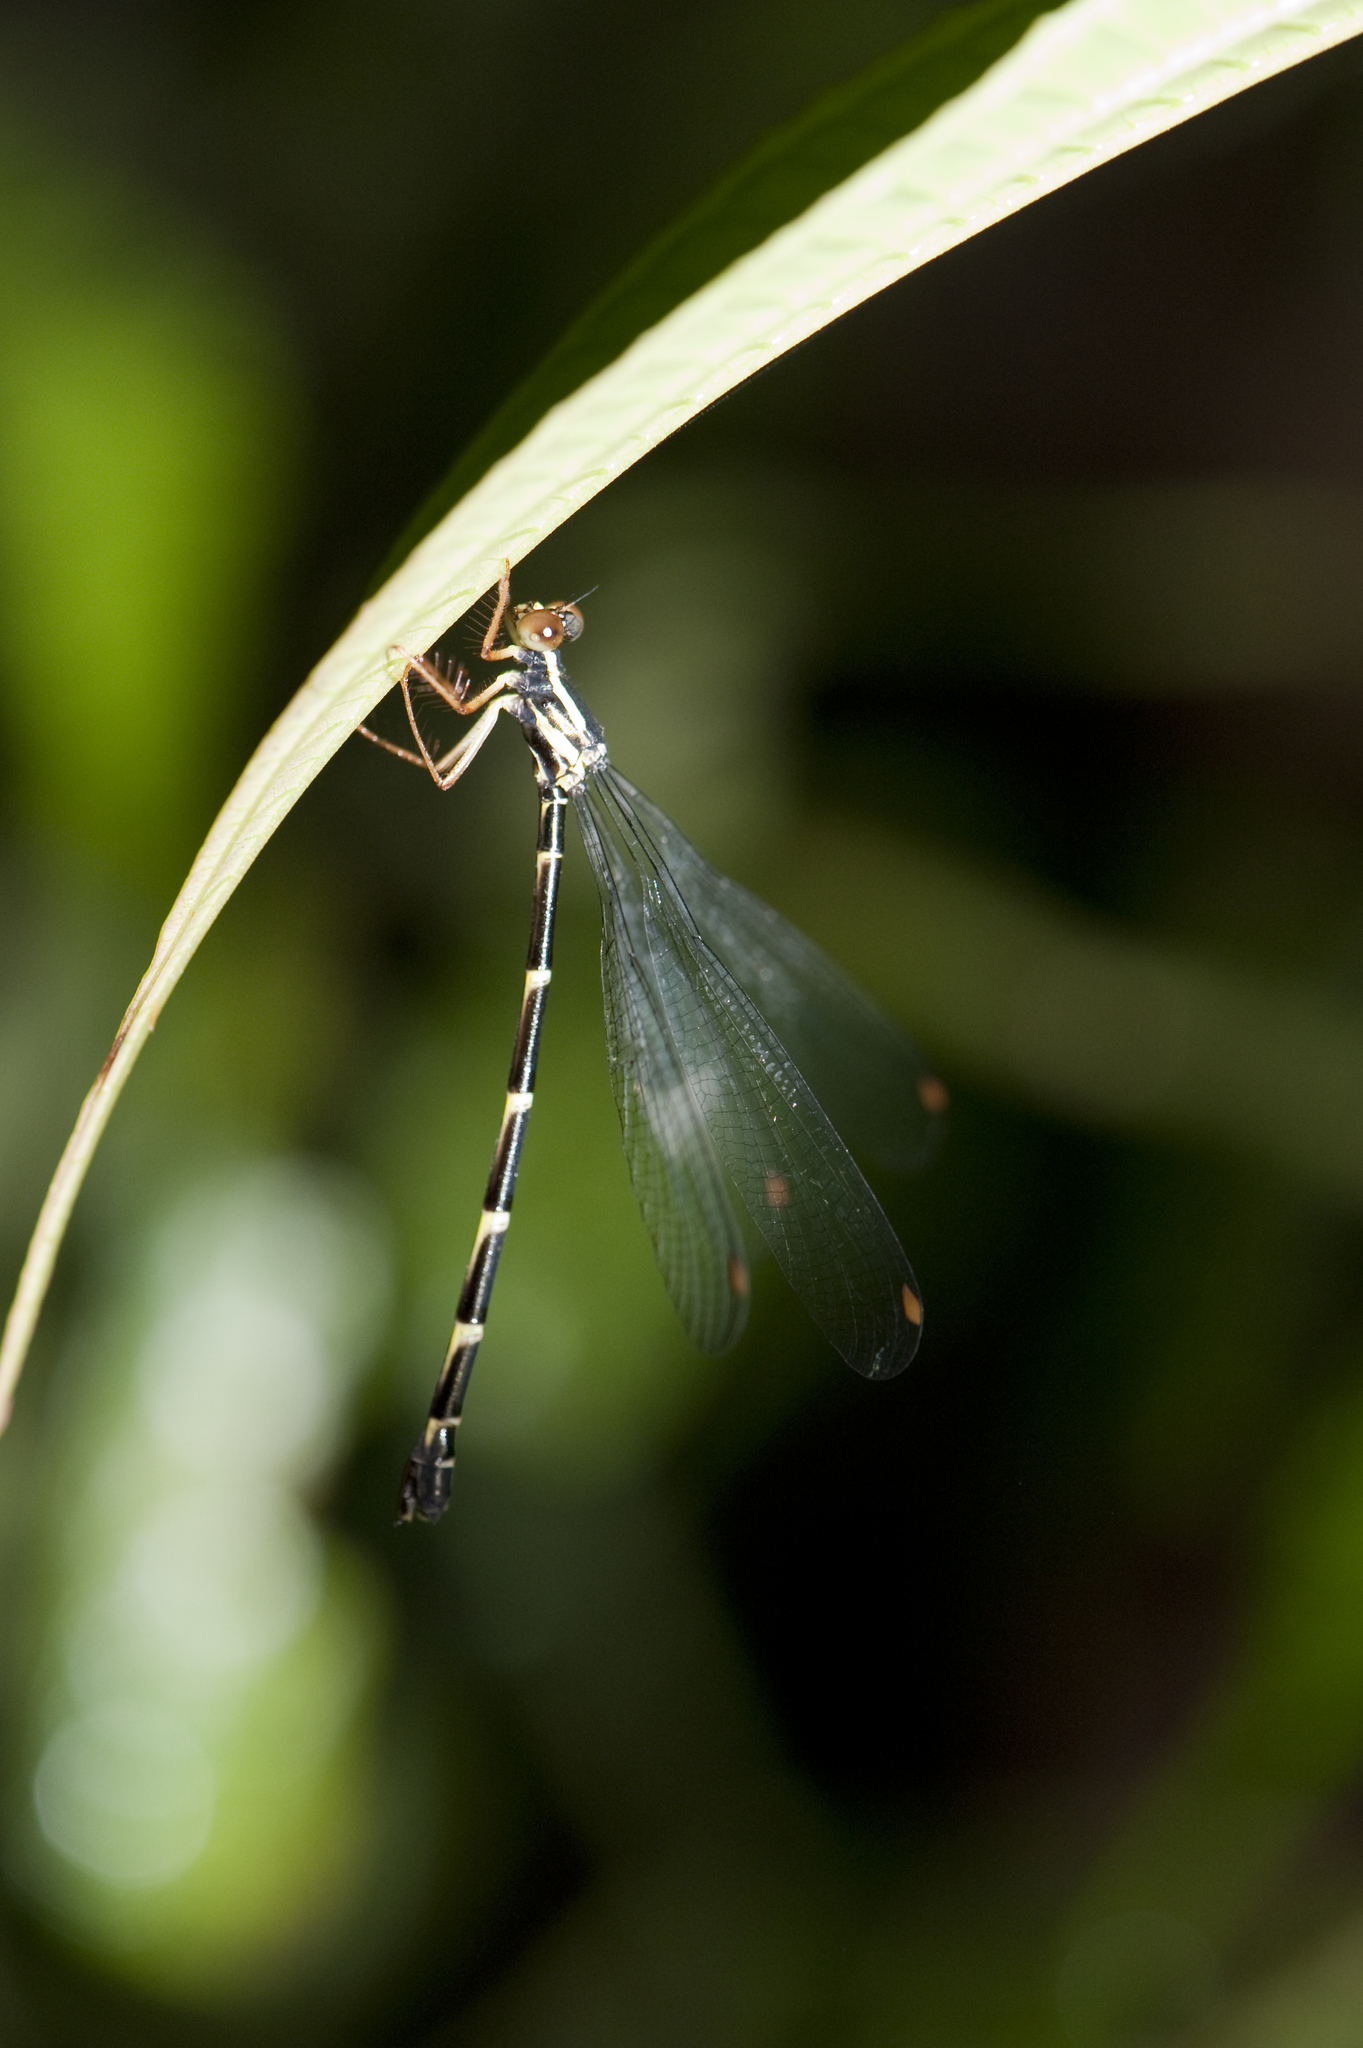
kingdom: Animalia
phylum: Arthropoda
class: Insecta
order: Odonata
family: Megapodagrionidae
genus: Rhipidolestes
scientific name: Rhipidolestes aculeatus
